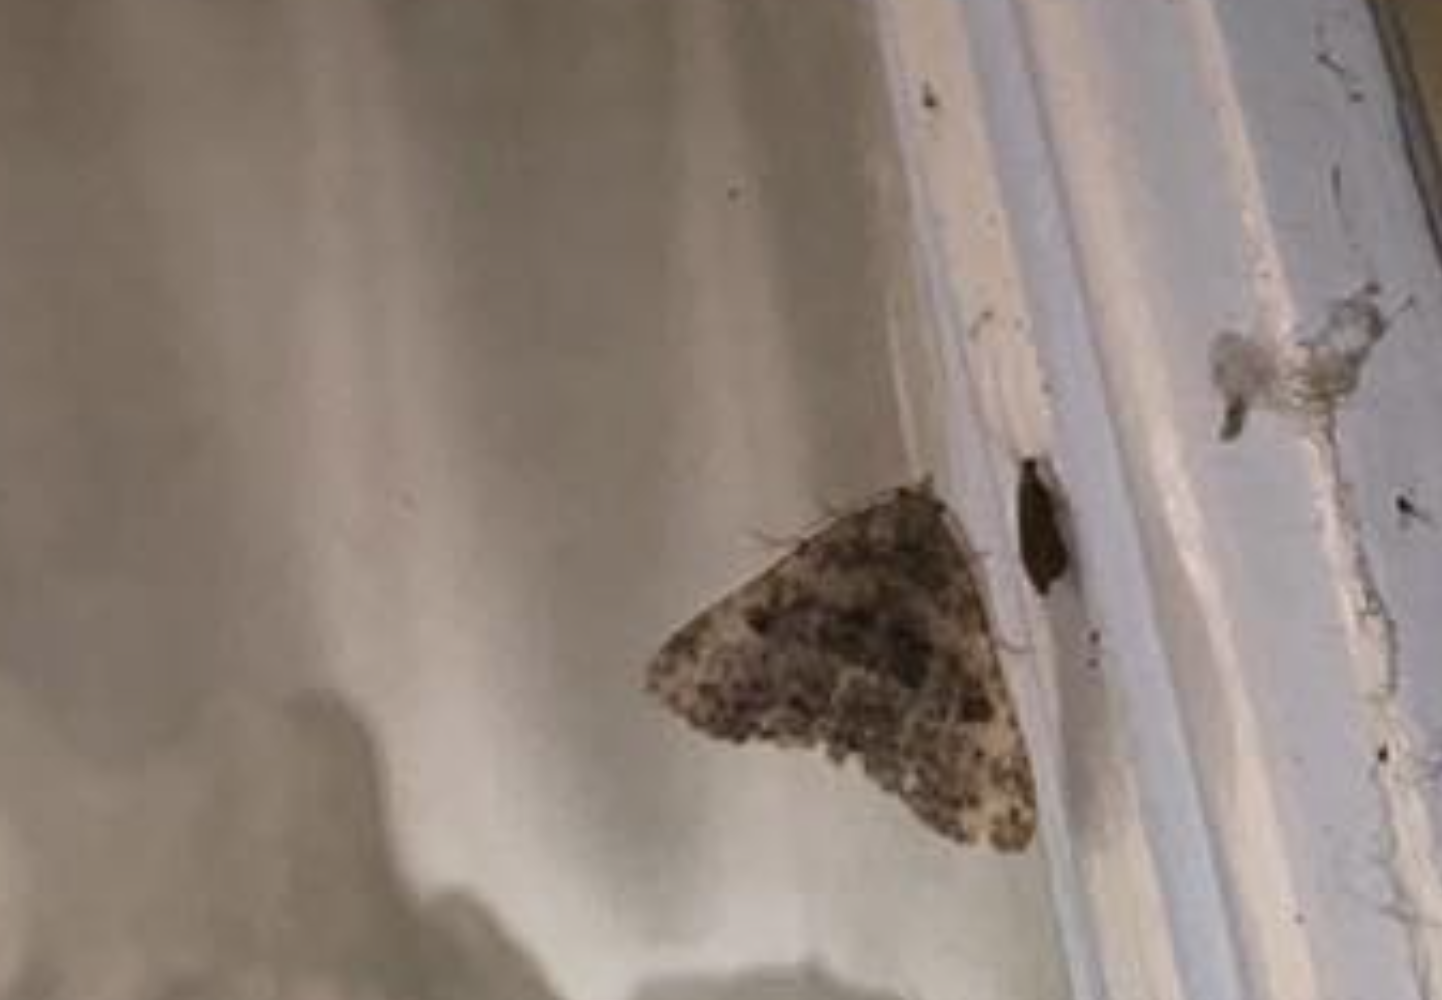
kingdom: Animalia
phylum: Arthropoda
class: Insecta
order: Lepidoptera
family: Erebidae
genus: Metalectra
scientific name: Metalectra discalis
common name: Common fungus moth
